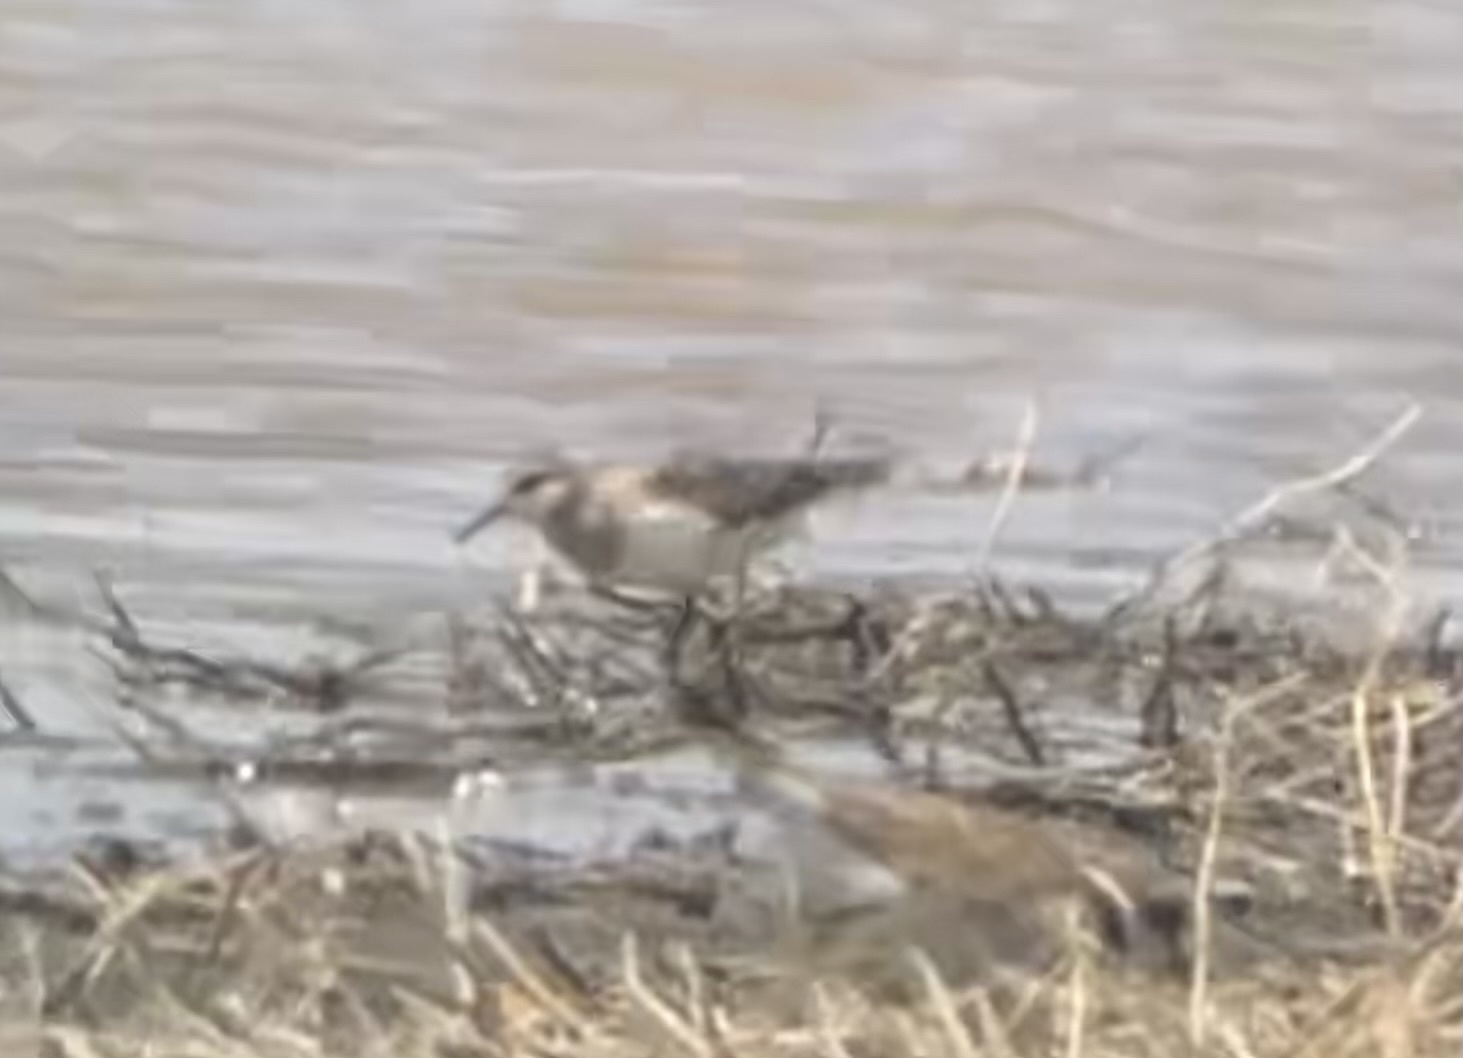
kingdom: Animalia
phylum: Chordata
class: Aves
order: Charadriiformes
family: Scolopacidae
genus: Calidris
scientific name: Calidris temminckii
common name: Temminck's stint
